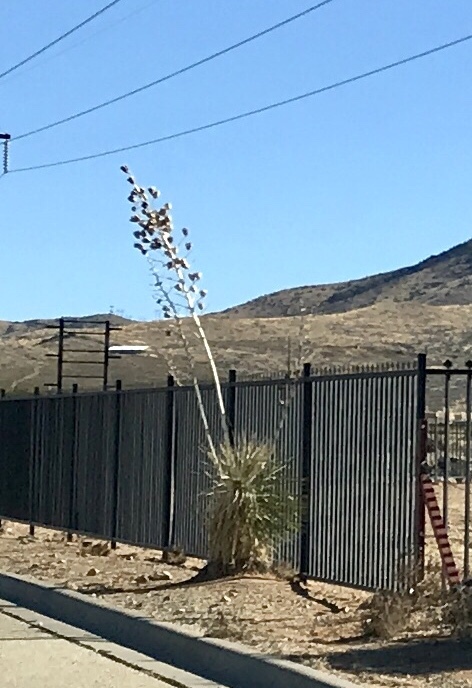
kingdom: Plantae
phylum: Tracheophyta
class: Liliopsida
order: Asparagales
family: Asparagaceae
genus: Yucca
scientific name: Yucca elata
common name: Palmella
